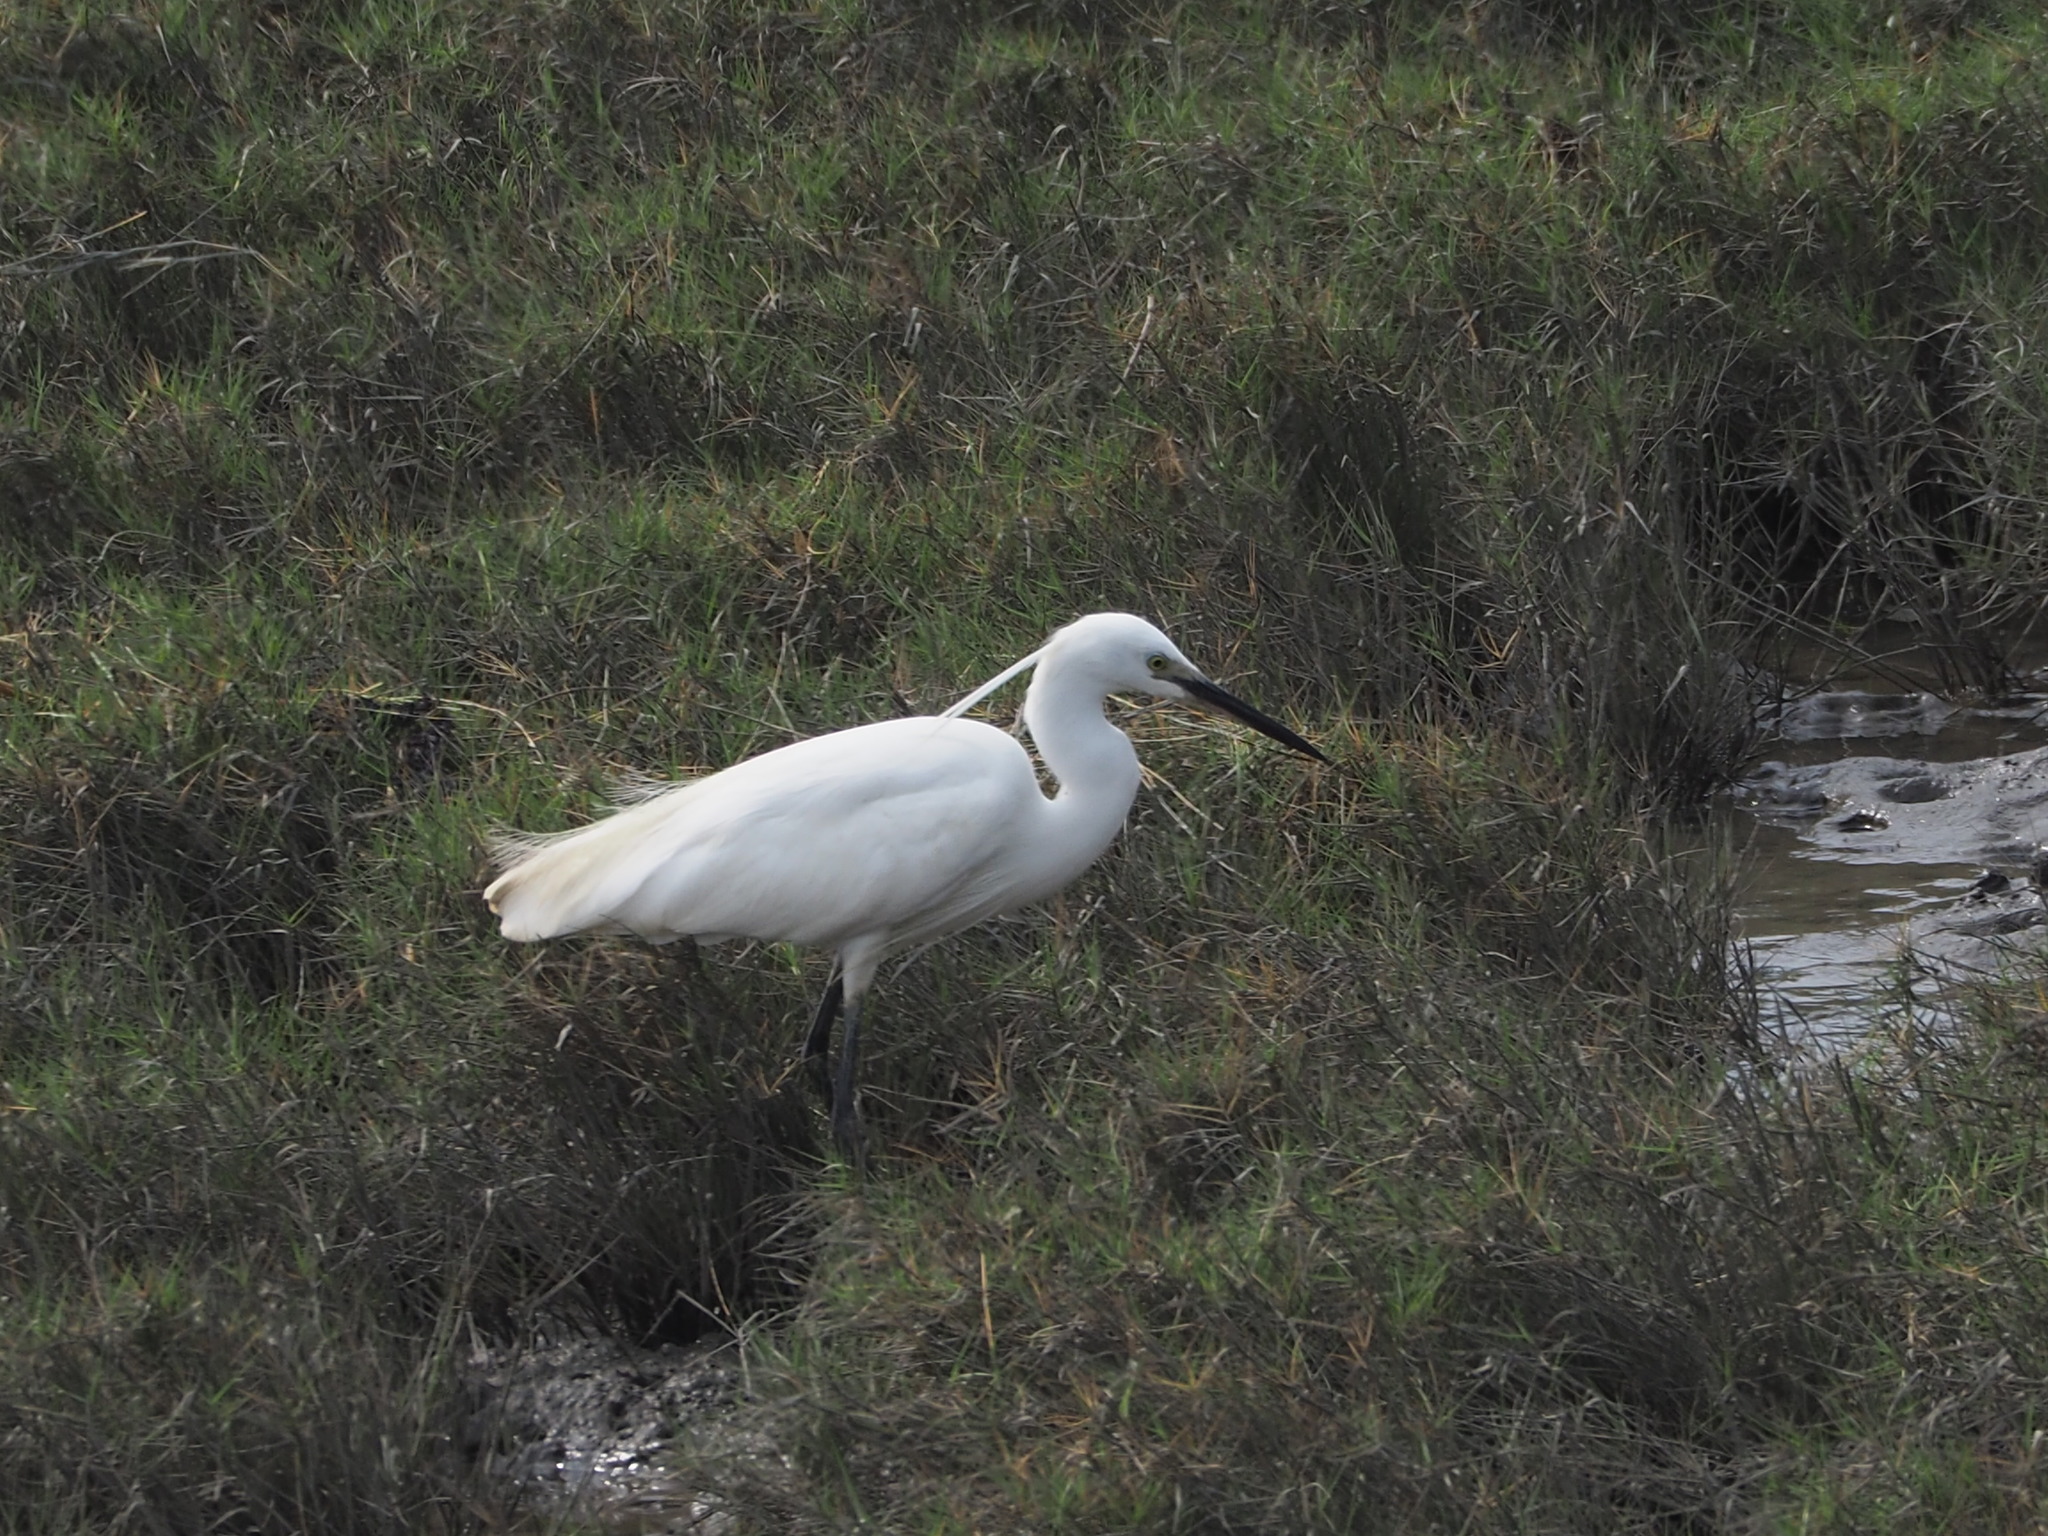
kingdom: Animalia
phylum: Chordata
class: Aves
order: Pelecaniformes
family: Ardeidae
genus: Egretta
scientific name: Egretta garzetta
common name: Little egret
